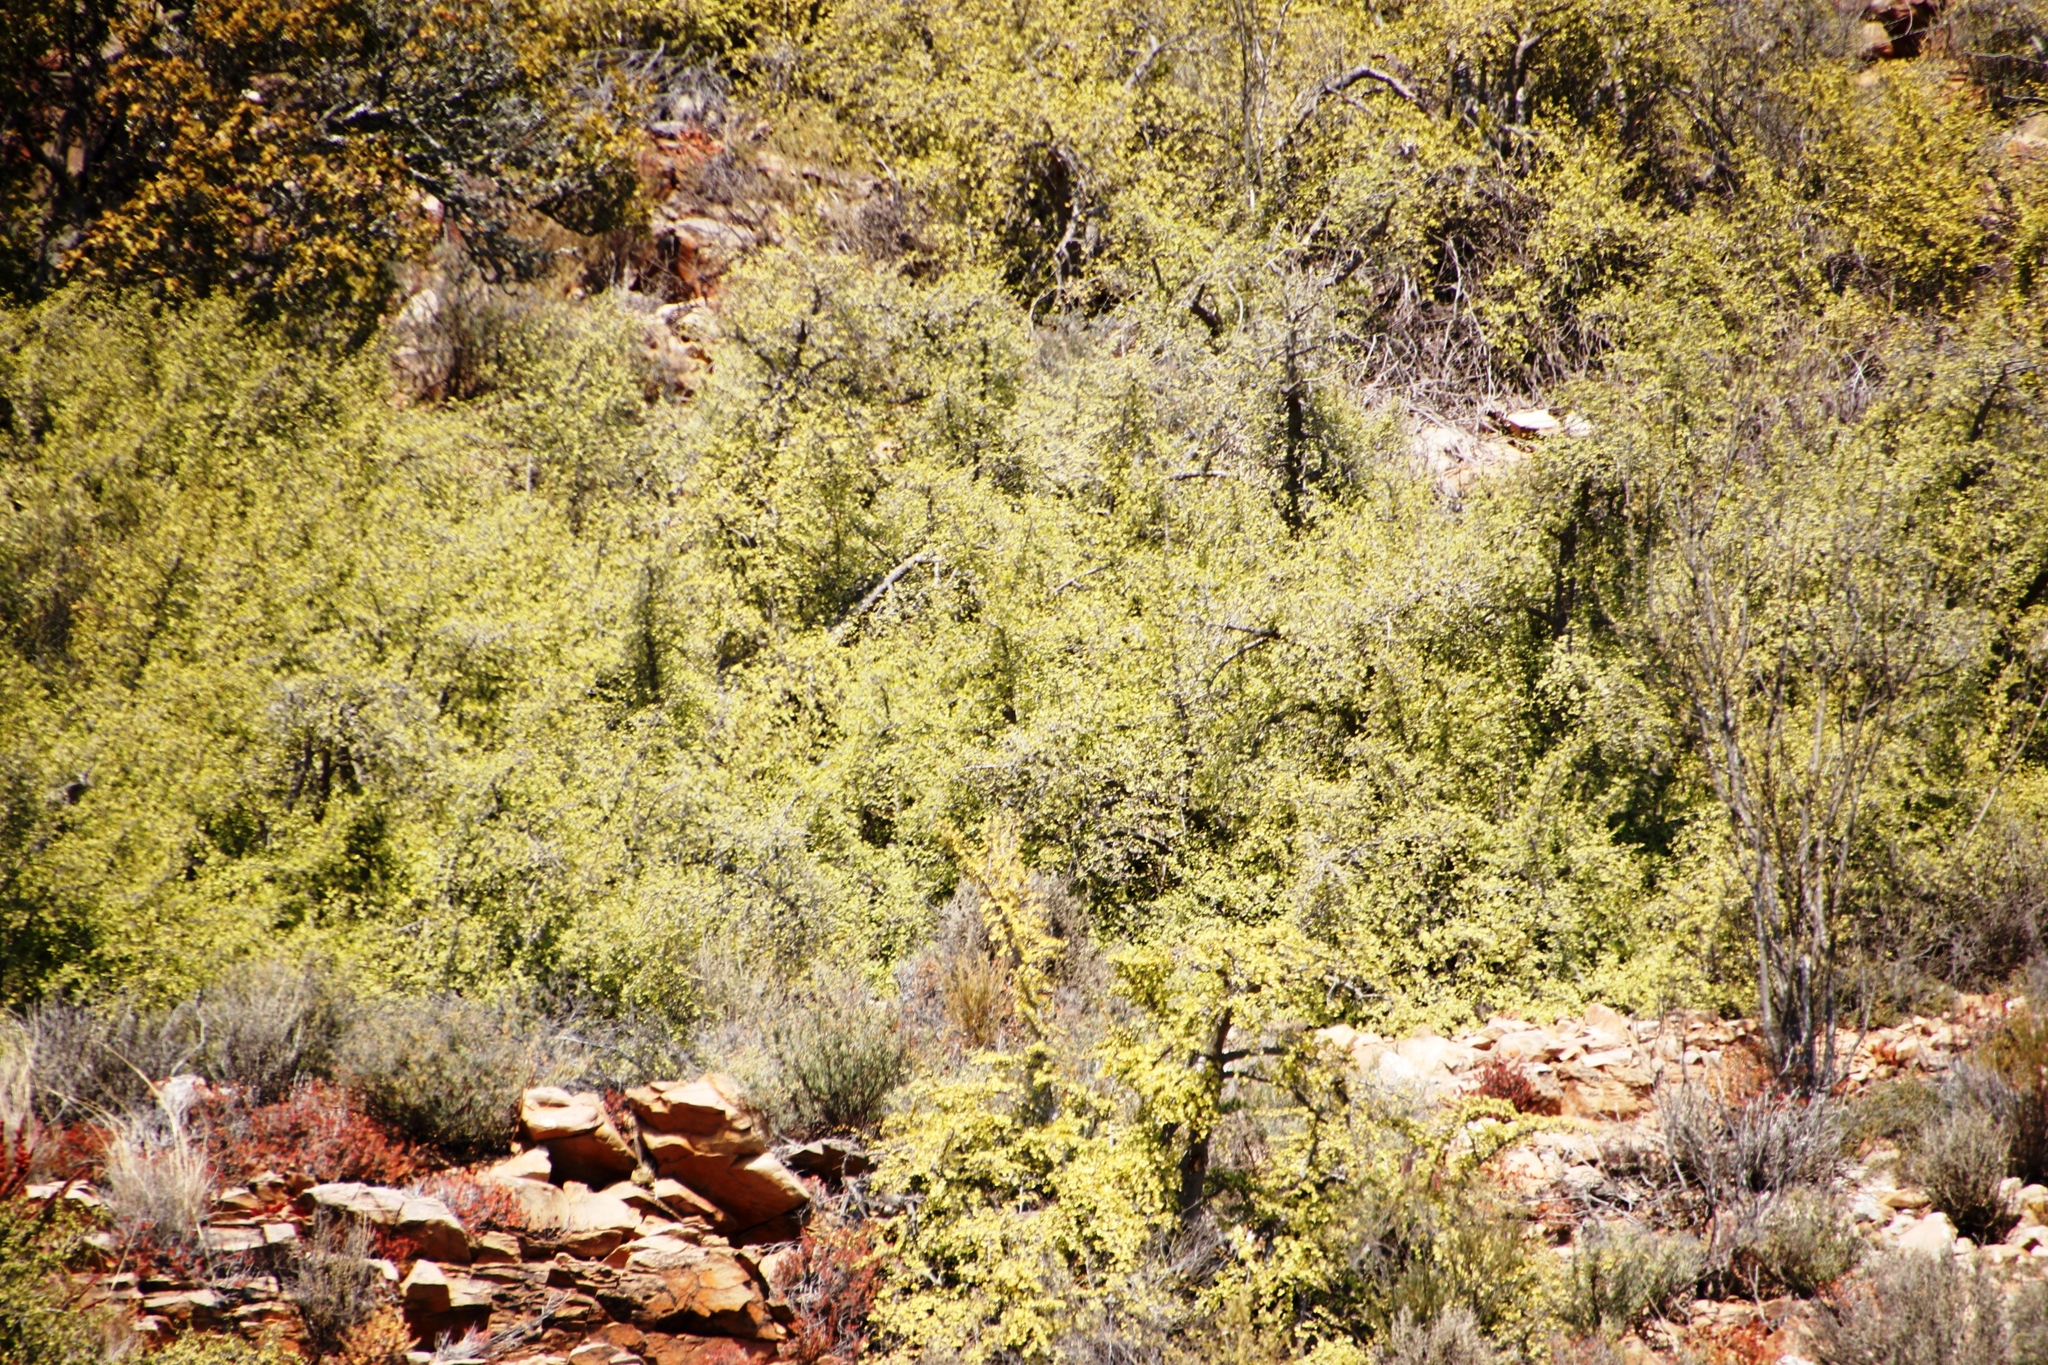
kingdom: Plantae
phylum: Tracheophyta
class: Magnoliopsida
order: Caryophyllales
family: Didiereaceae
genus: Portulacaria
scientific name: Portulacaria afra
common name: Elephant-bush
